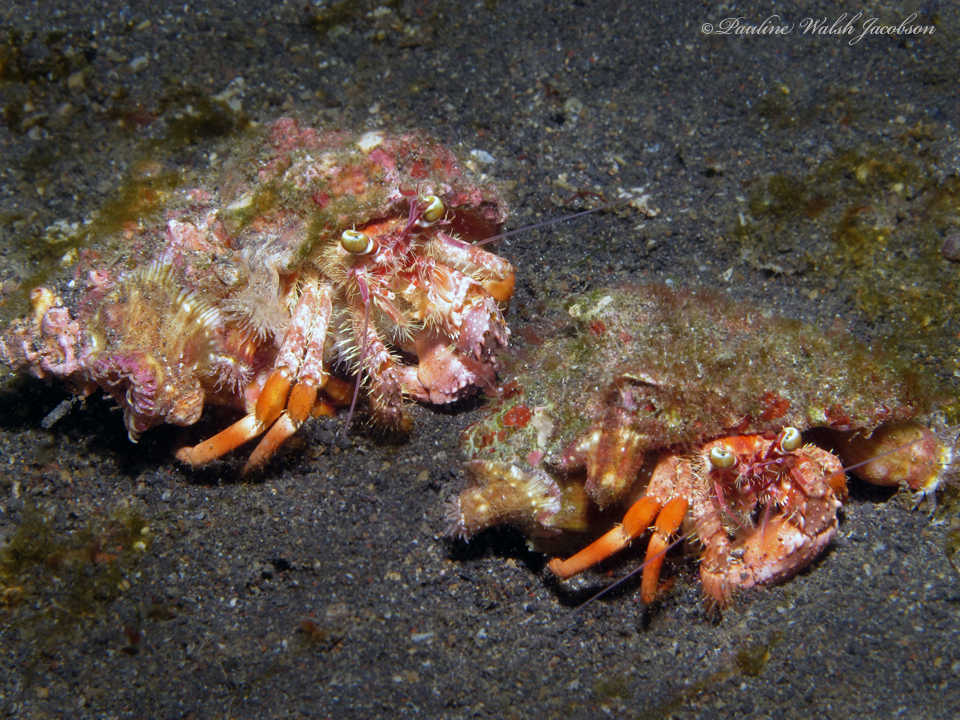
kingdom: Animalia
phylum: Arthropoda
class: Malacostraca
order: Decapoda
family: Diogenidae
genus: Dardanus
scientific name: Dardanus pedunculatus
